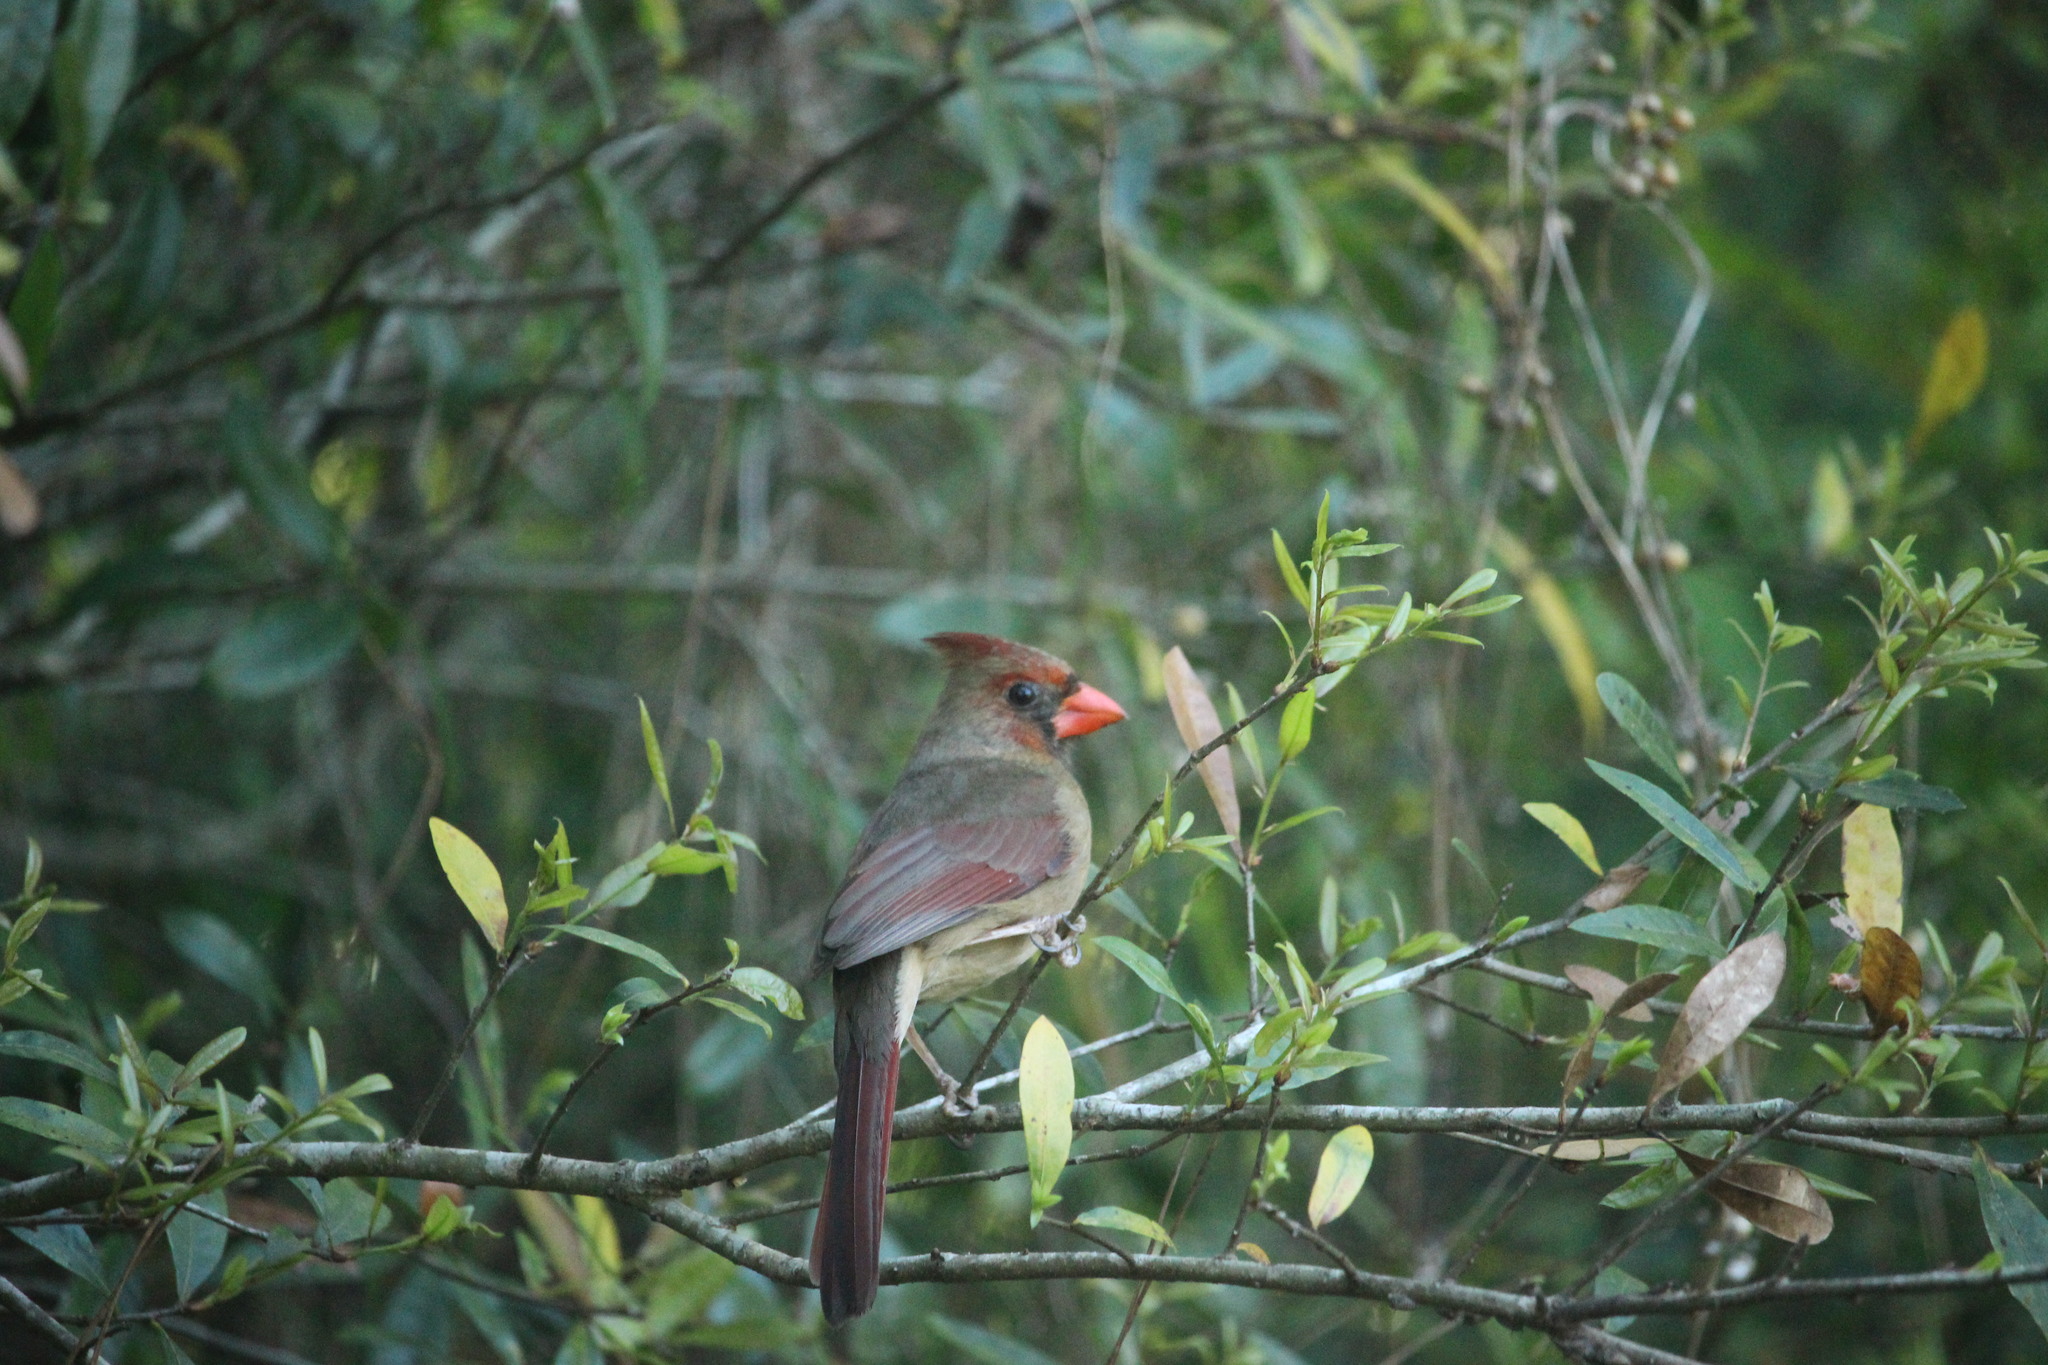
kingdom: Animalia
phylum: Chordata
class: Aves
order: Passeriformes
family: Cardinalidae
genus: Cardinalis
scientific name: Cardinalis cardinalis
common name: Northern cardinal
